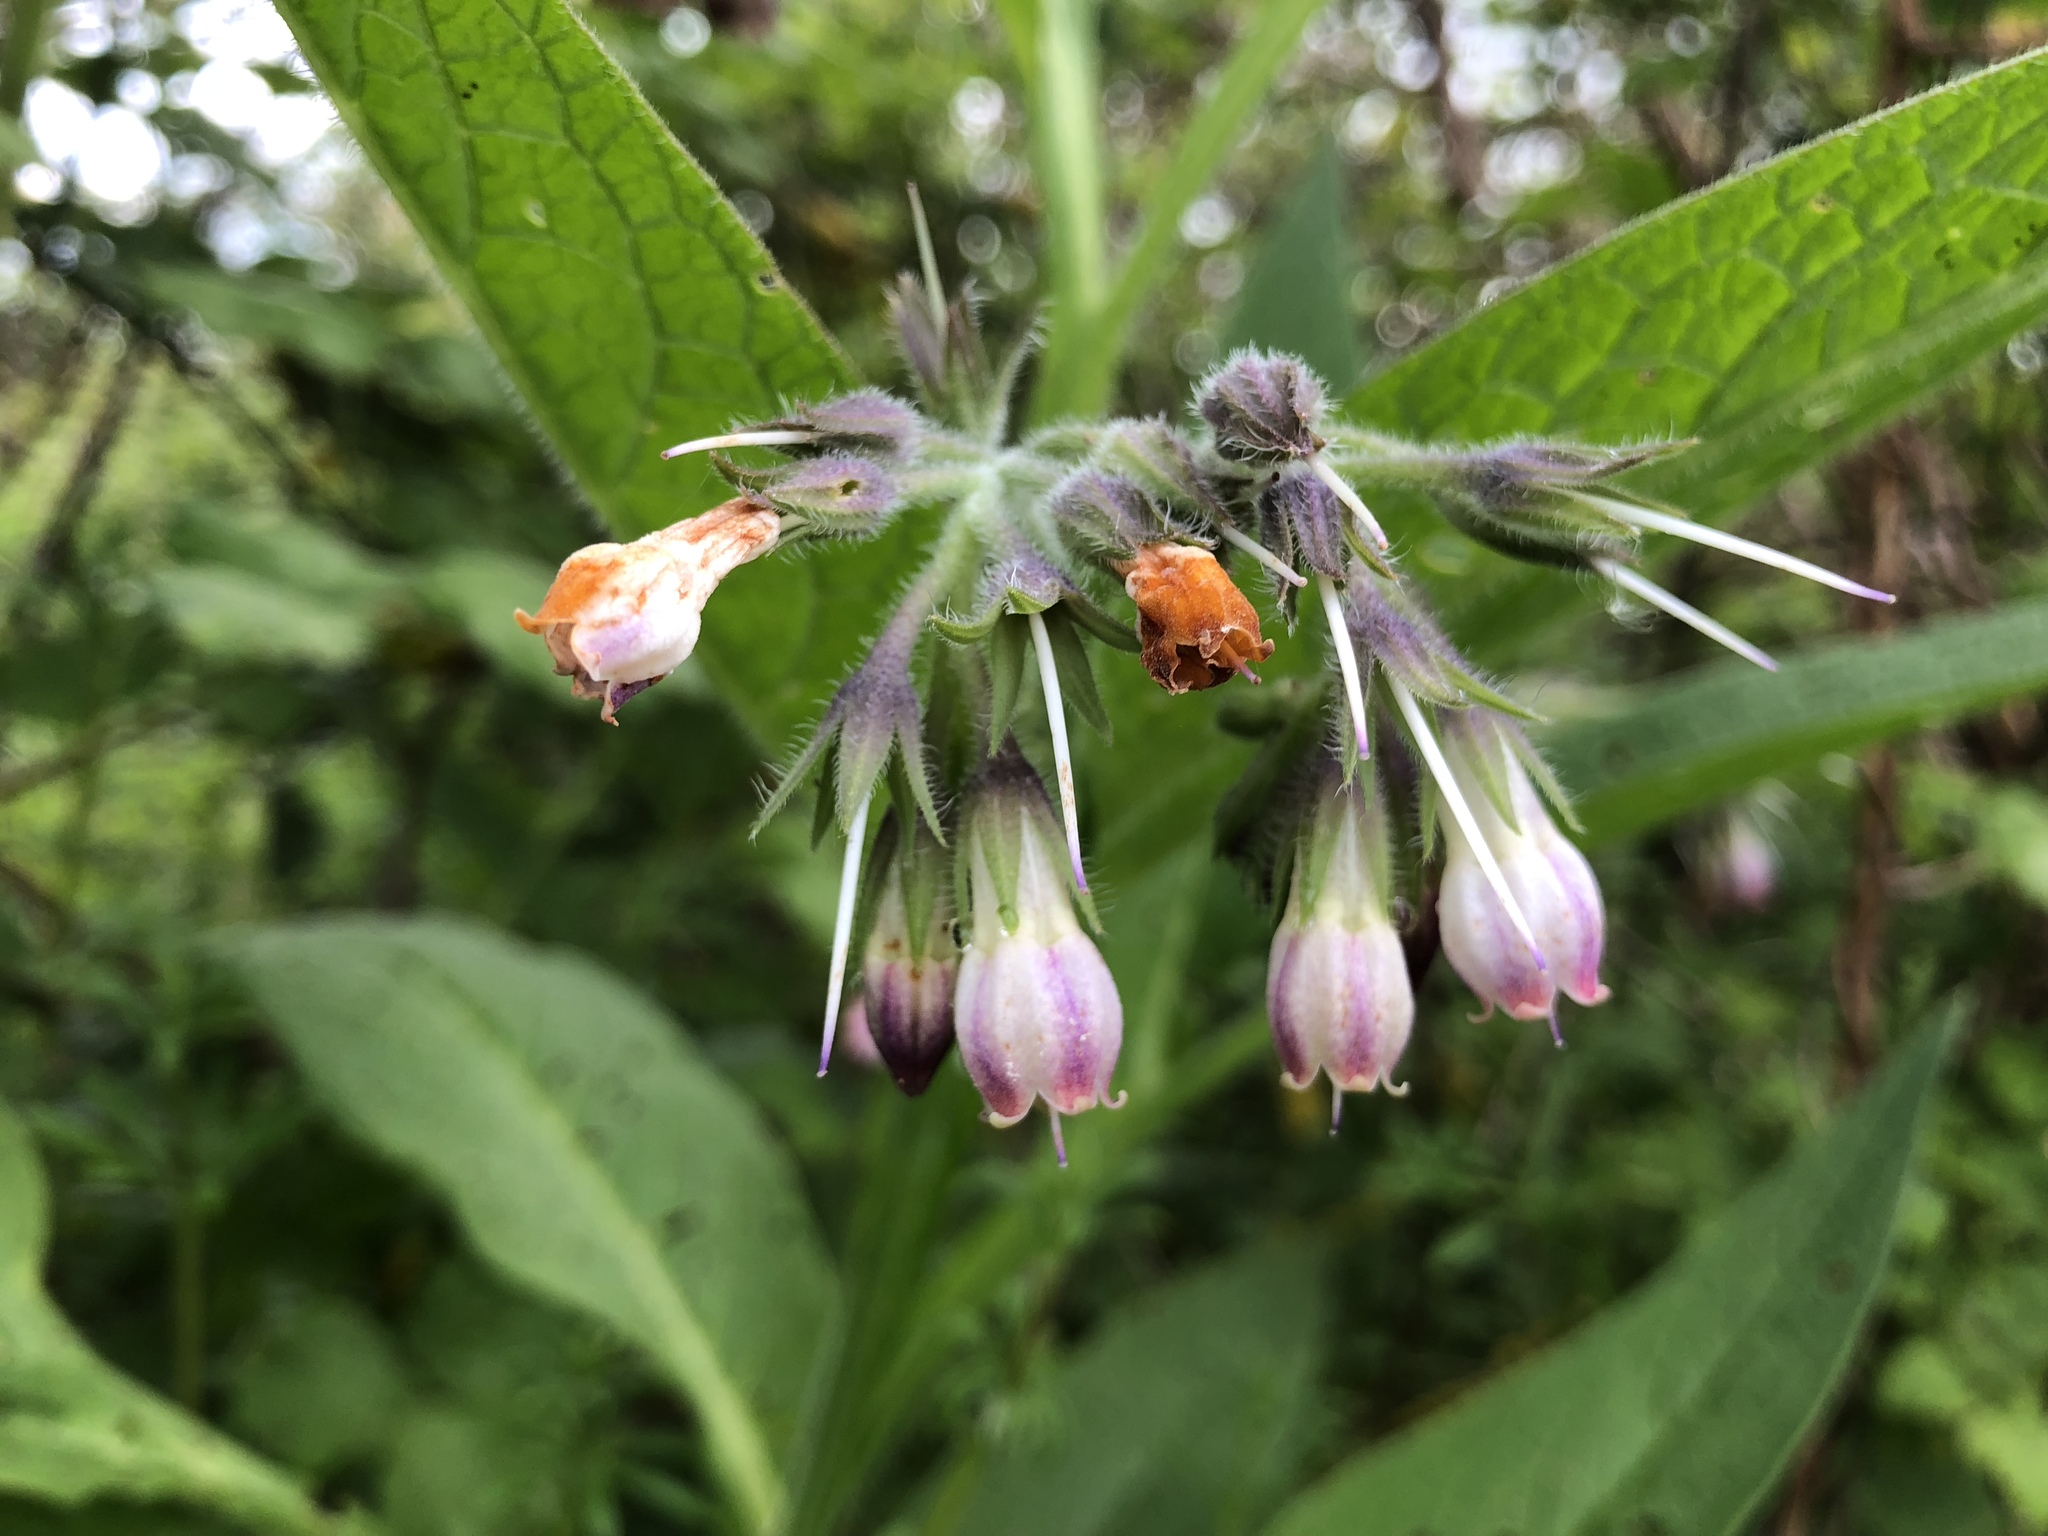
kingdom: Plantae
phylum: Tracheophyta
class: Magnoliopsida
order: Boraginales
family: Boraginaceae
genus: Symphytum
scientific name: Symphytum officinale
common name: Common comfrey
